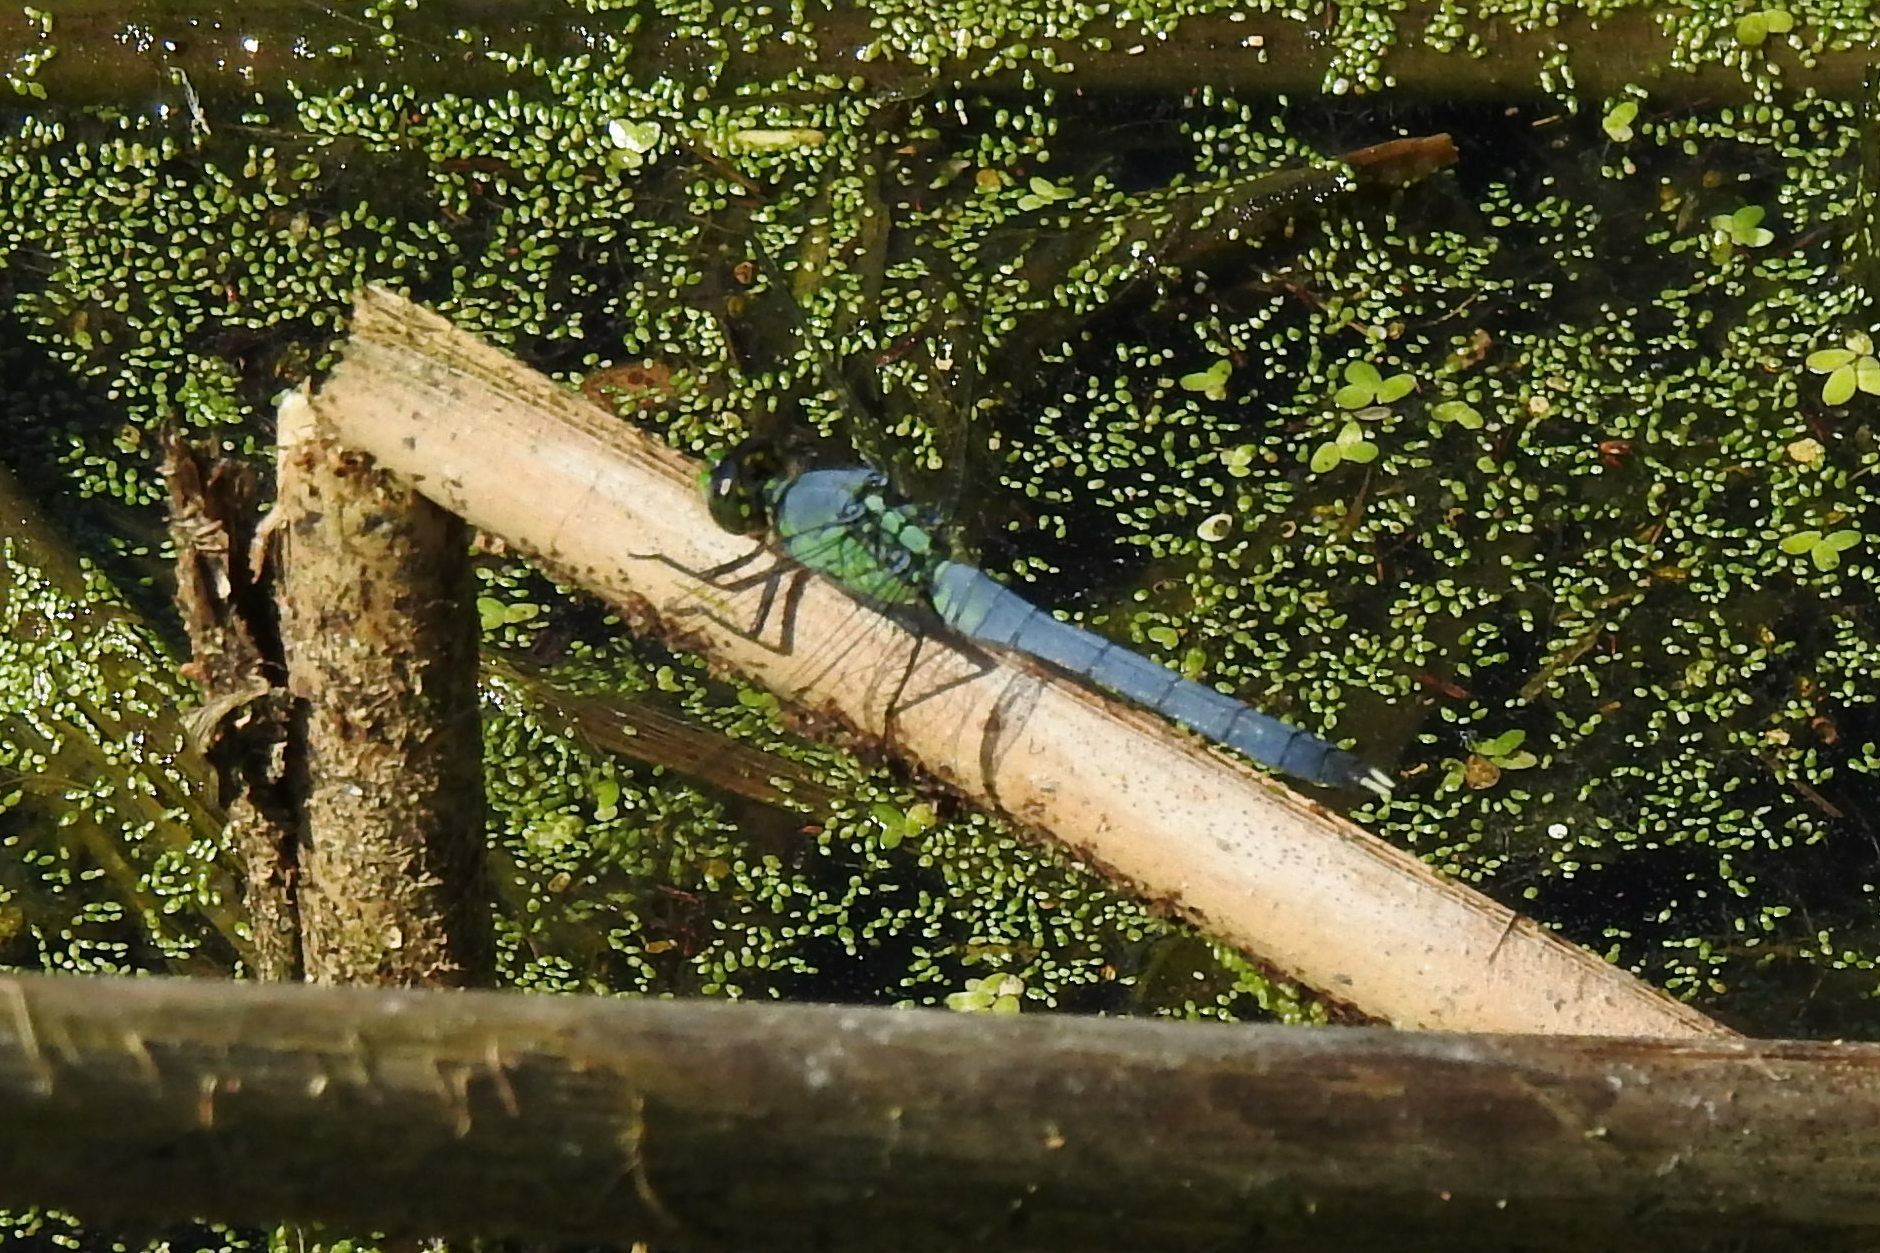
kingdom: Animalia
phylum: Arthropoda
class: Insecta
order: Odonata
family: Libellulidae
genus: Erythemis
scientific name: Erythemis simplicicollis
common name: Eastern pondhawk
